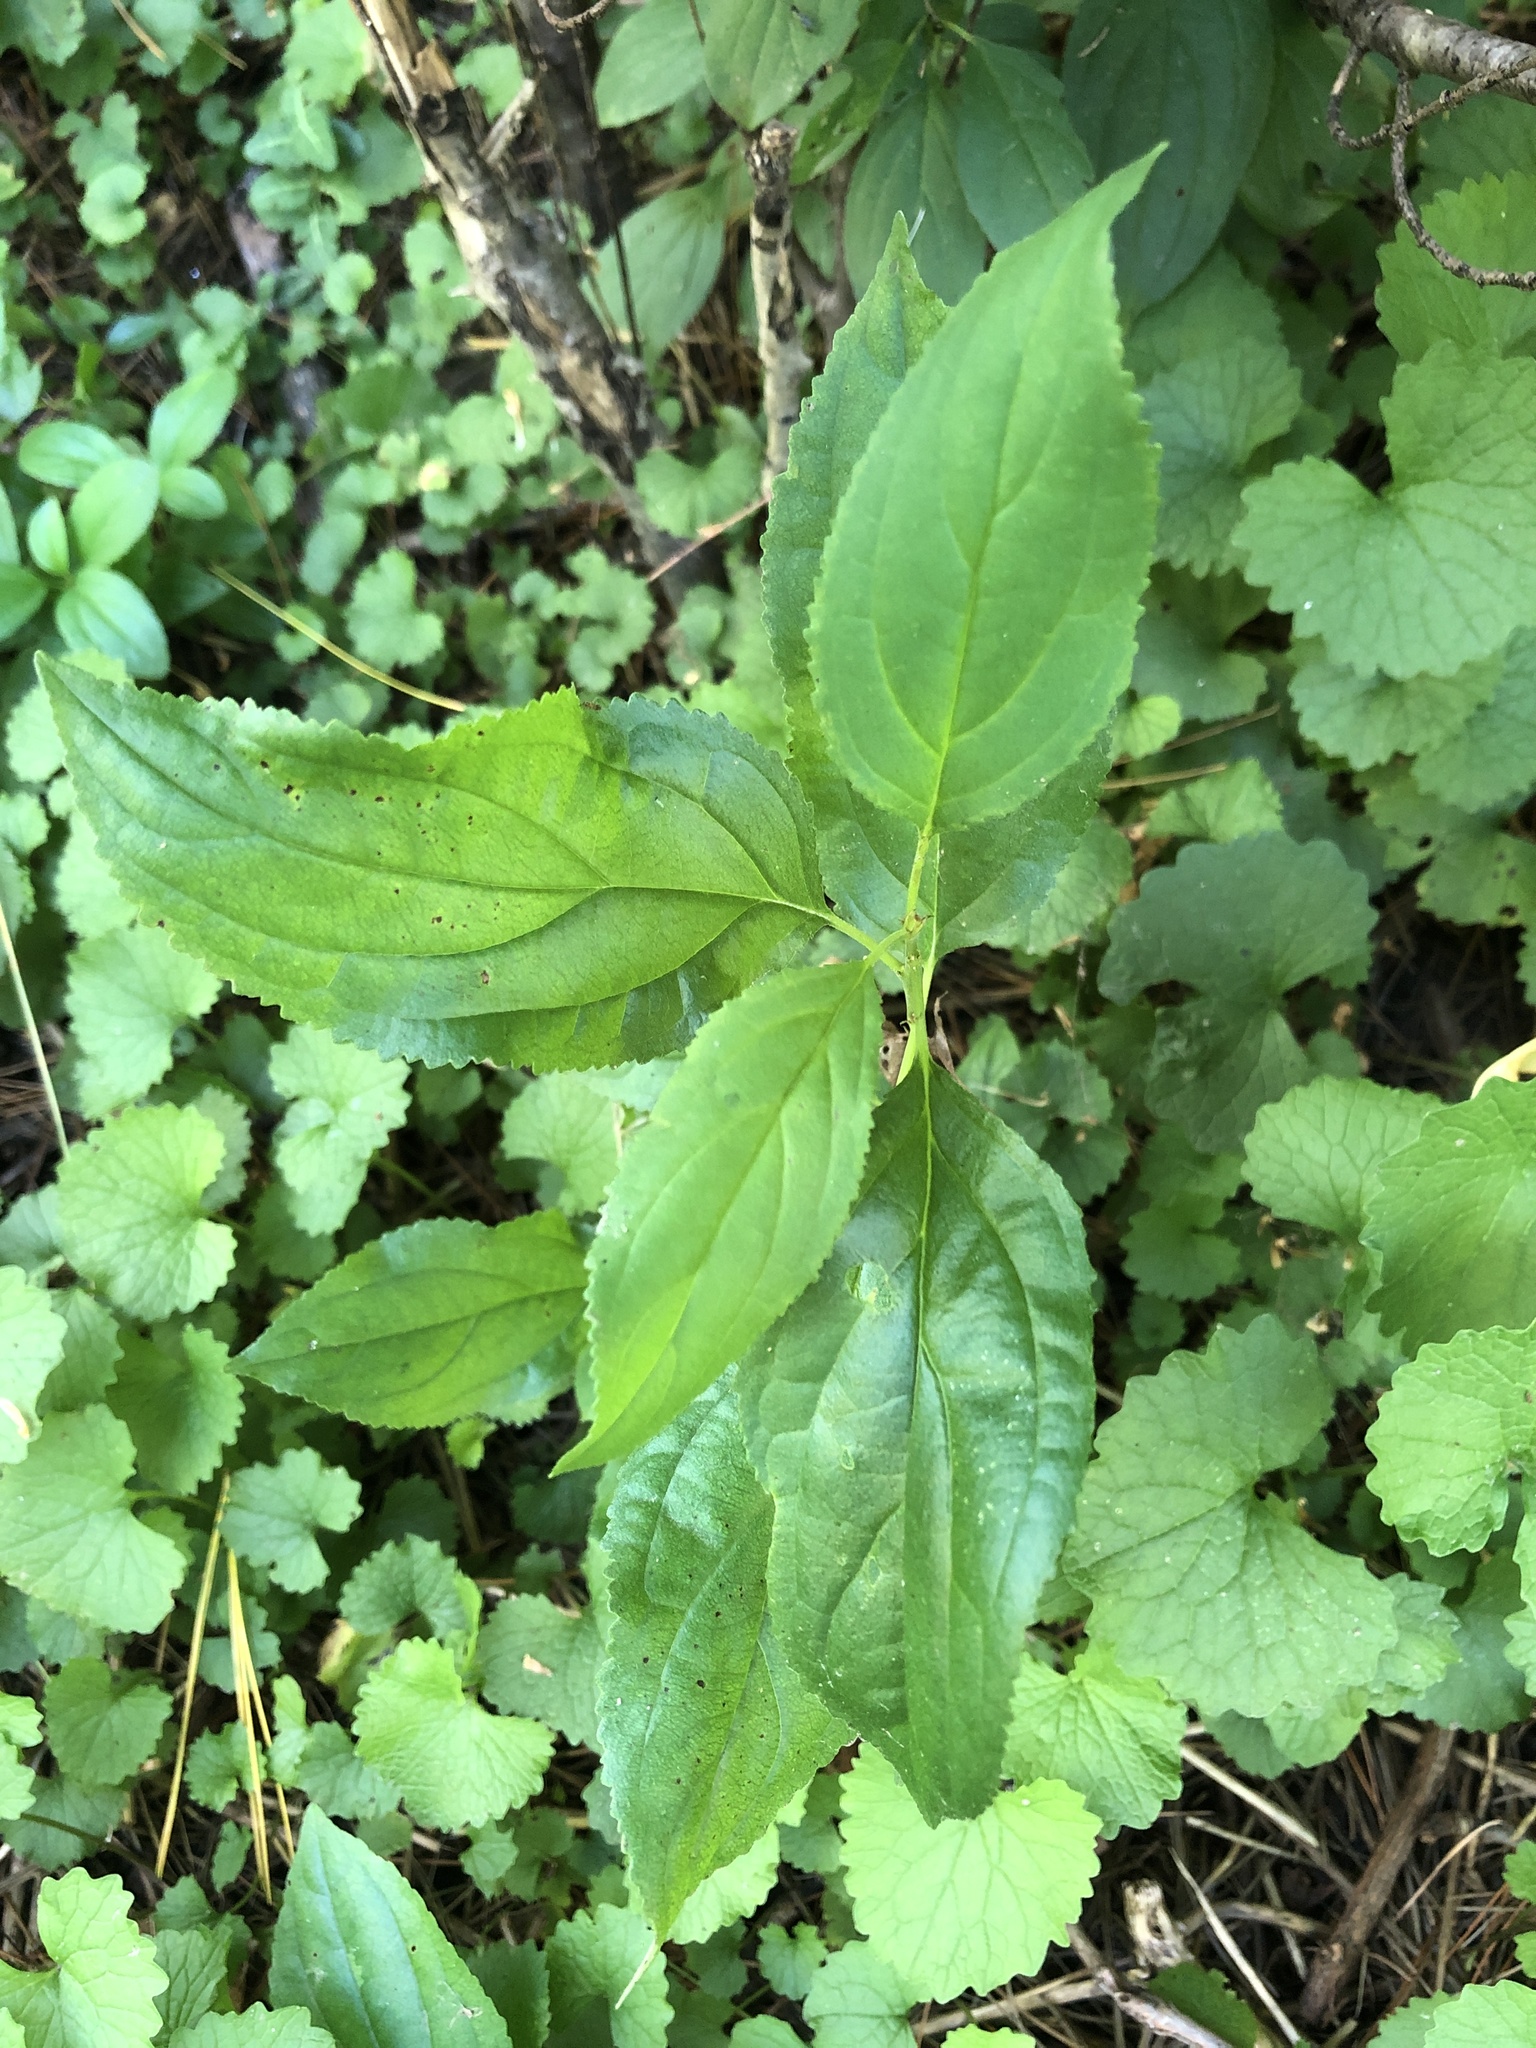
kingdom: Plantae
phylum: Tracheophyta
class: Magnoliopsida
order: Rosales
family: Rhamnaceae
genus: Rhamnus
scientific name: Rhamnus cathartica
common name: Common buckthorn
